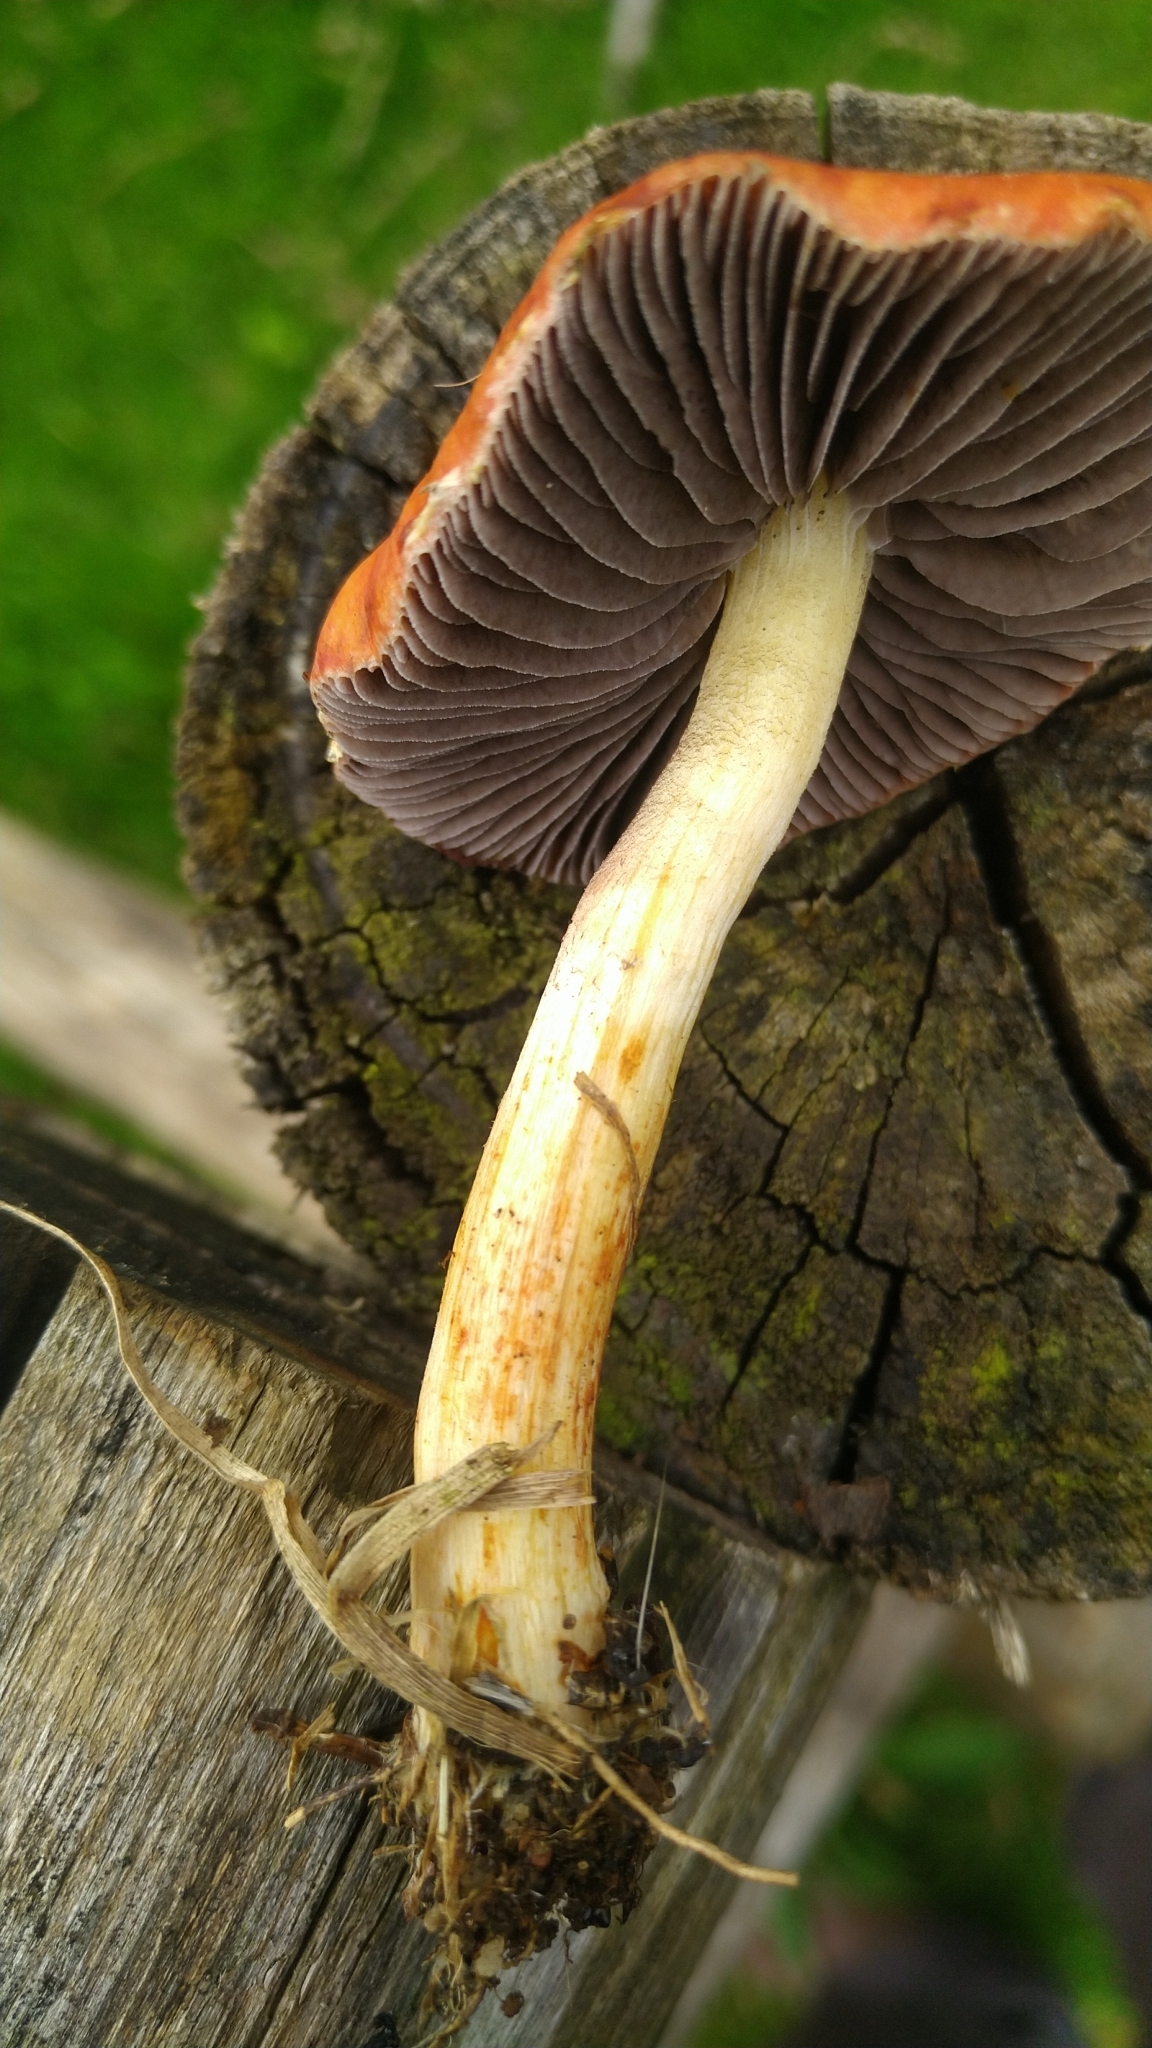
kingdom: Fungi
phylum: Basidiomycota
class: Agaricomycetes
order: Agaricales
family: Strophariaceae
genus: Leratiomyces
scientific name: Leratiomyces ceres
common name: Redlead roundhead
